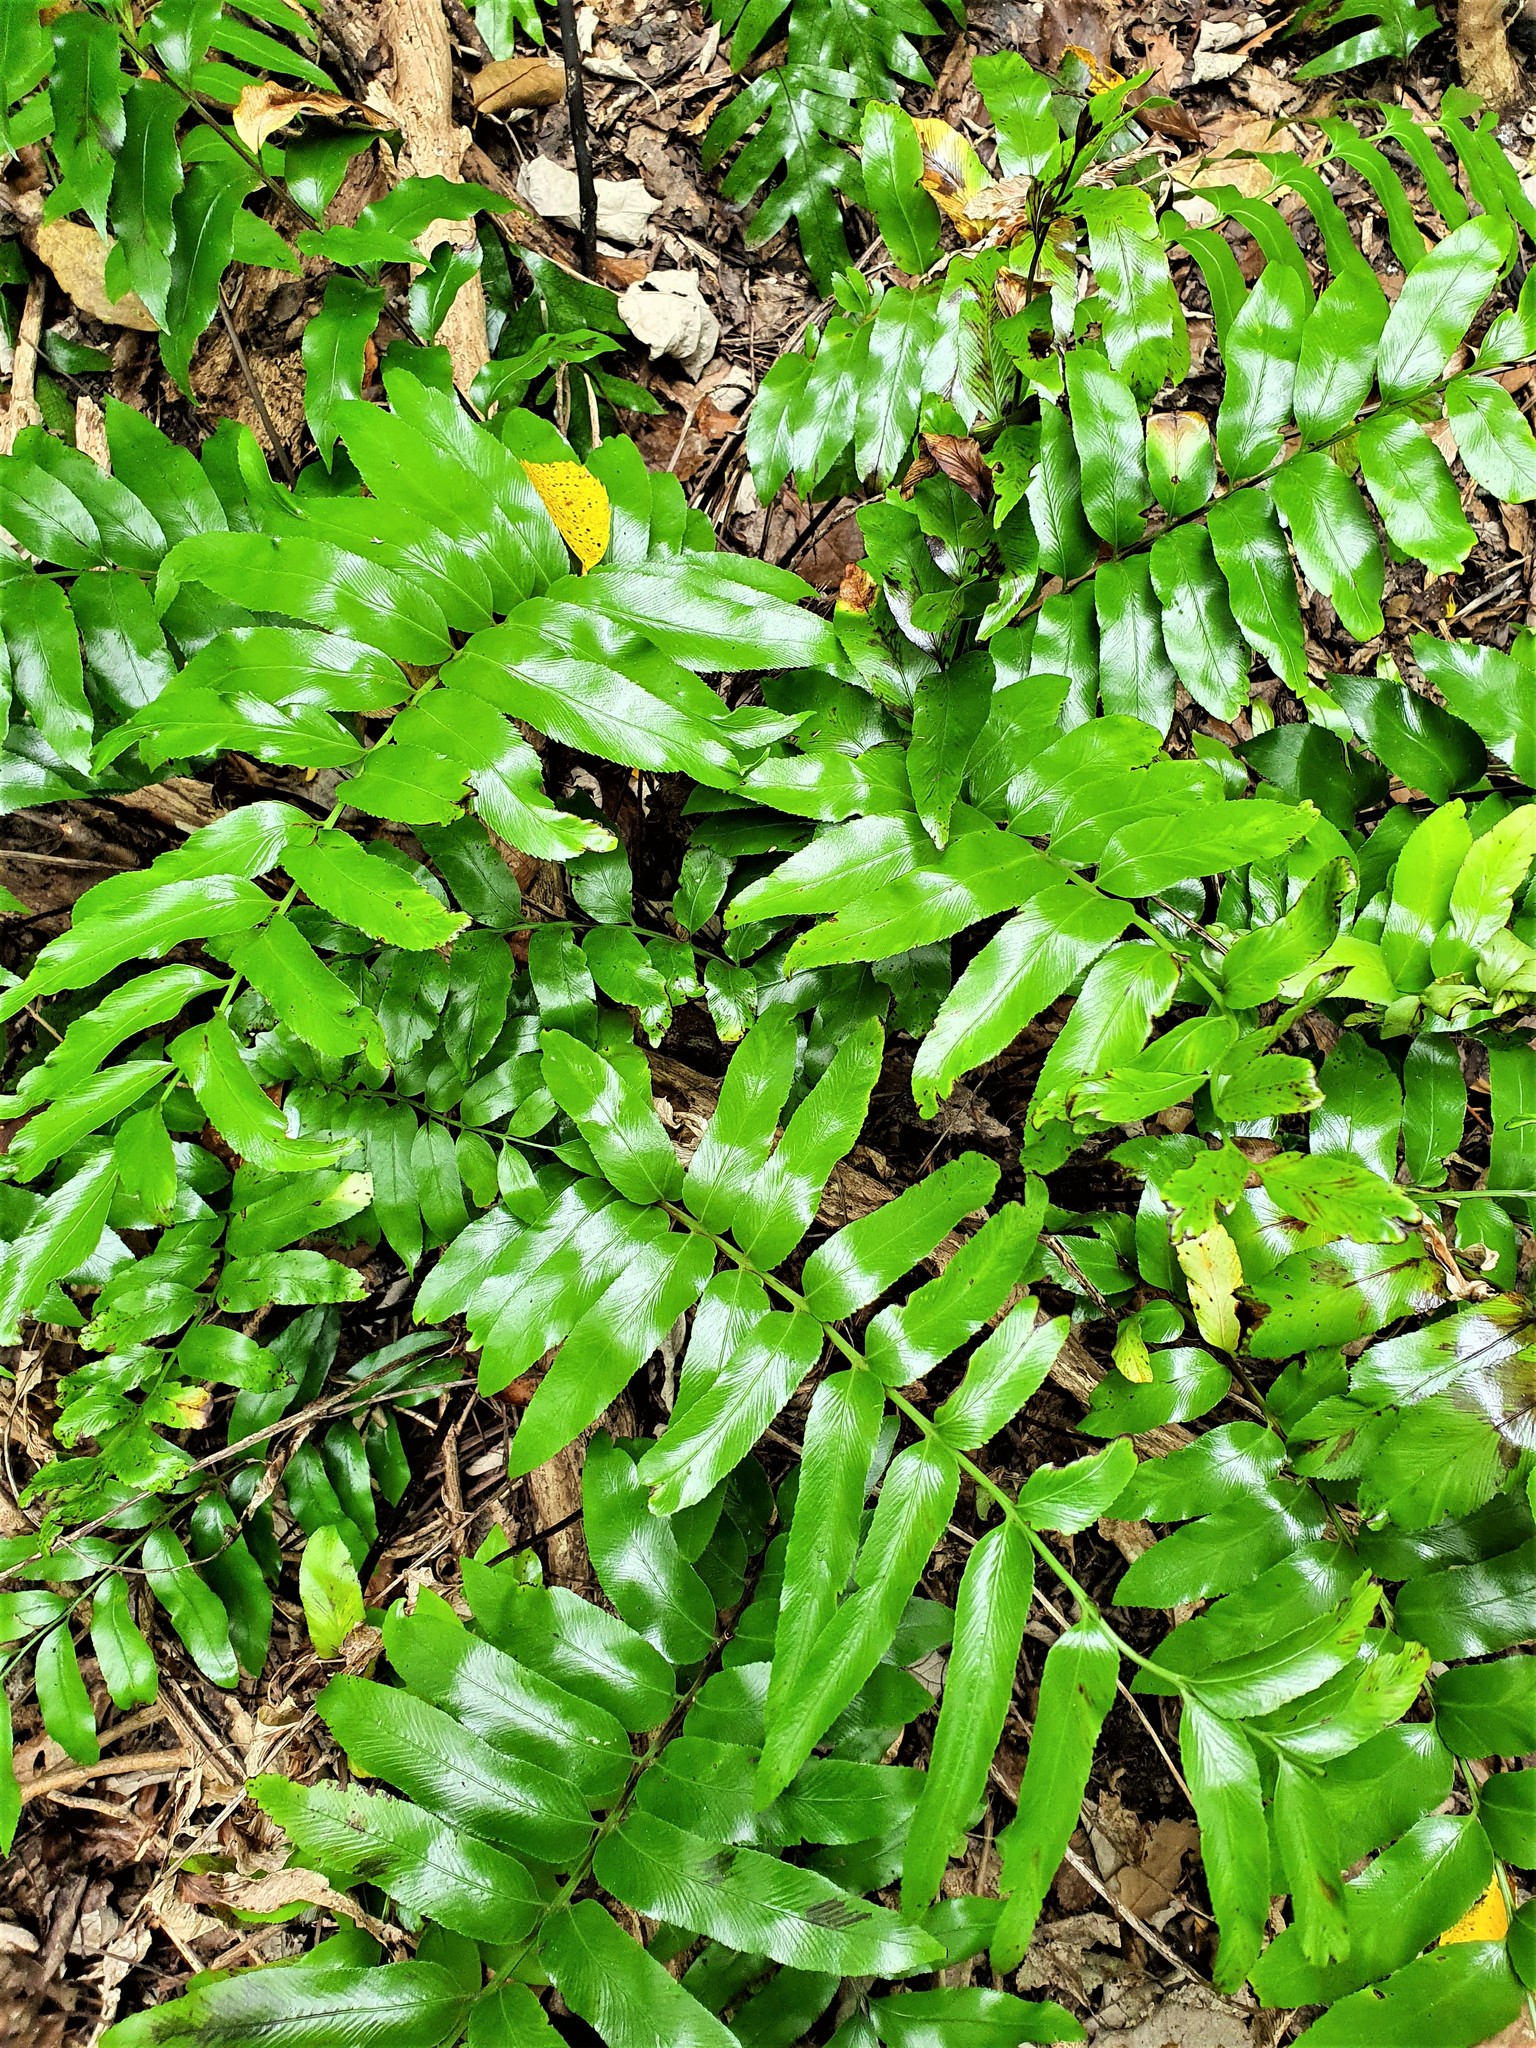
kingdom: Plantae
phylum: Tracheophyta
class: Polypodiopsida
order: Polypodiales
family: Aspleniaceae
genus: Asplenium
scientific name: Asplenium oblongifolium
